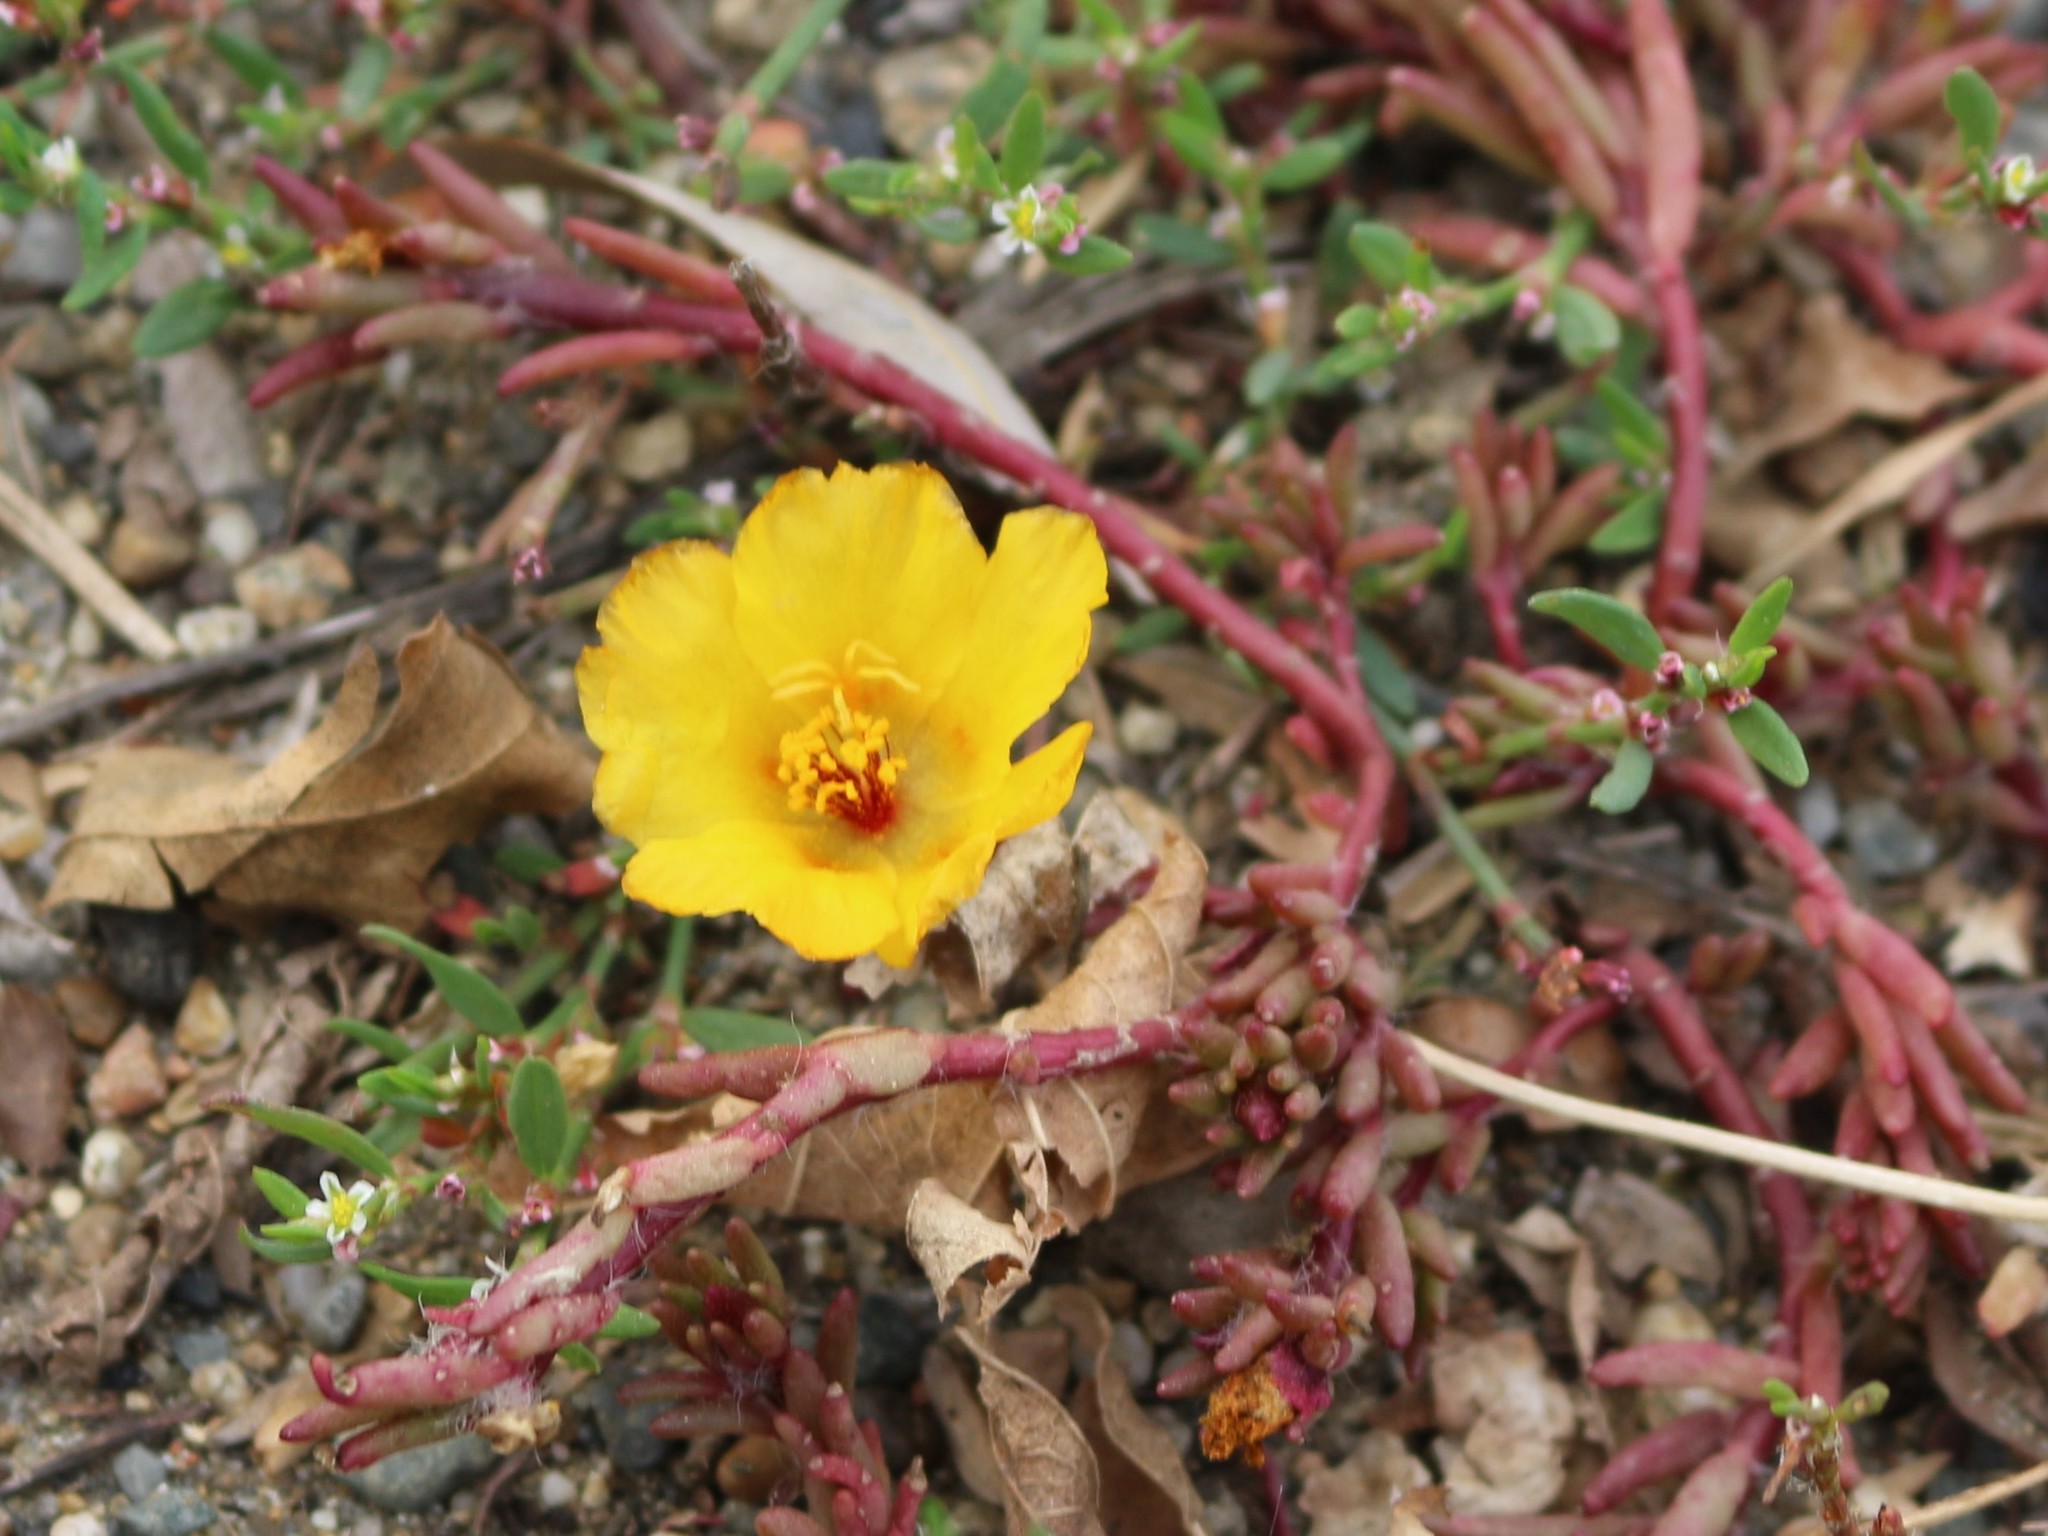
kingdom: Plantae
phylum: Tracheophyta
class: Magnoliopsida
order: Caryophyllales
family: Portulacaceae
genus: Portulaca
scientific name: Portulaca grandiflora
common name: Moss-rose
